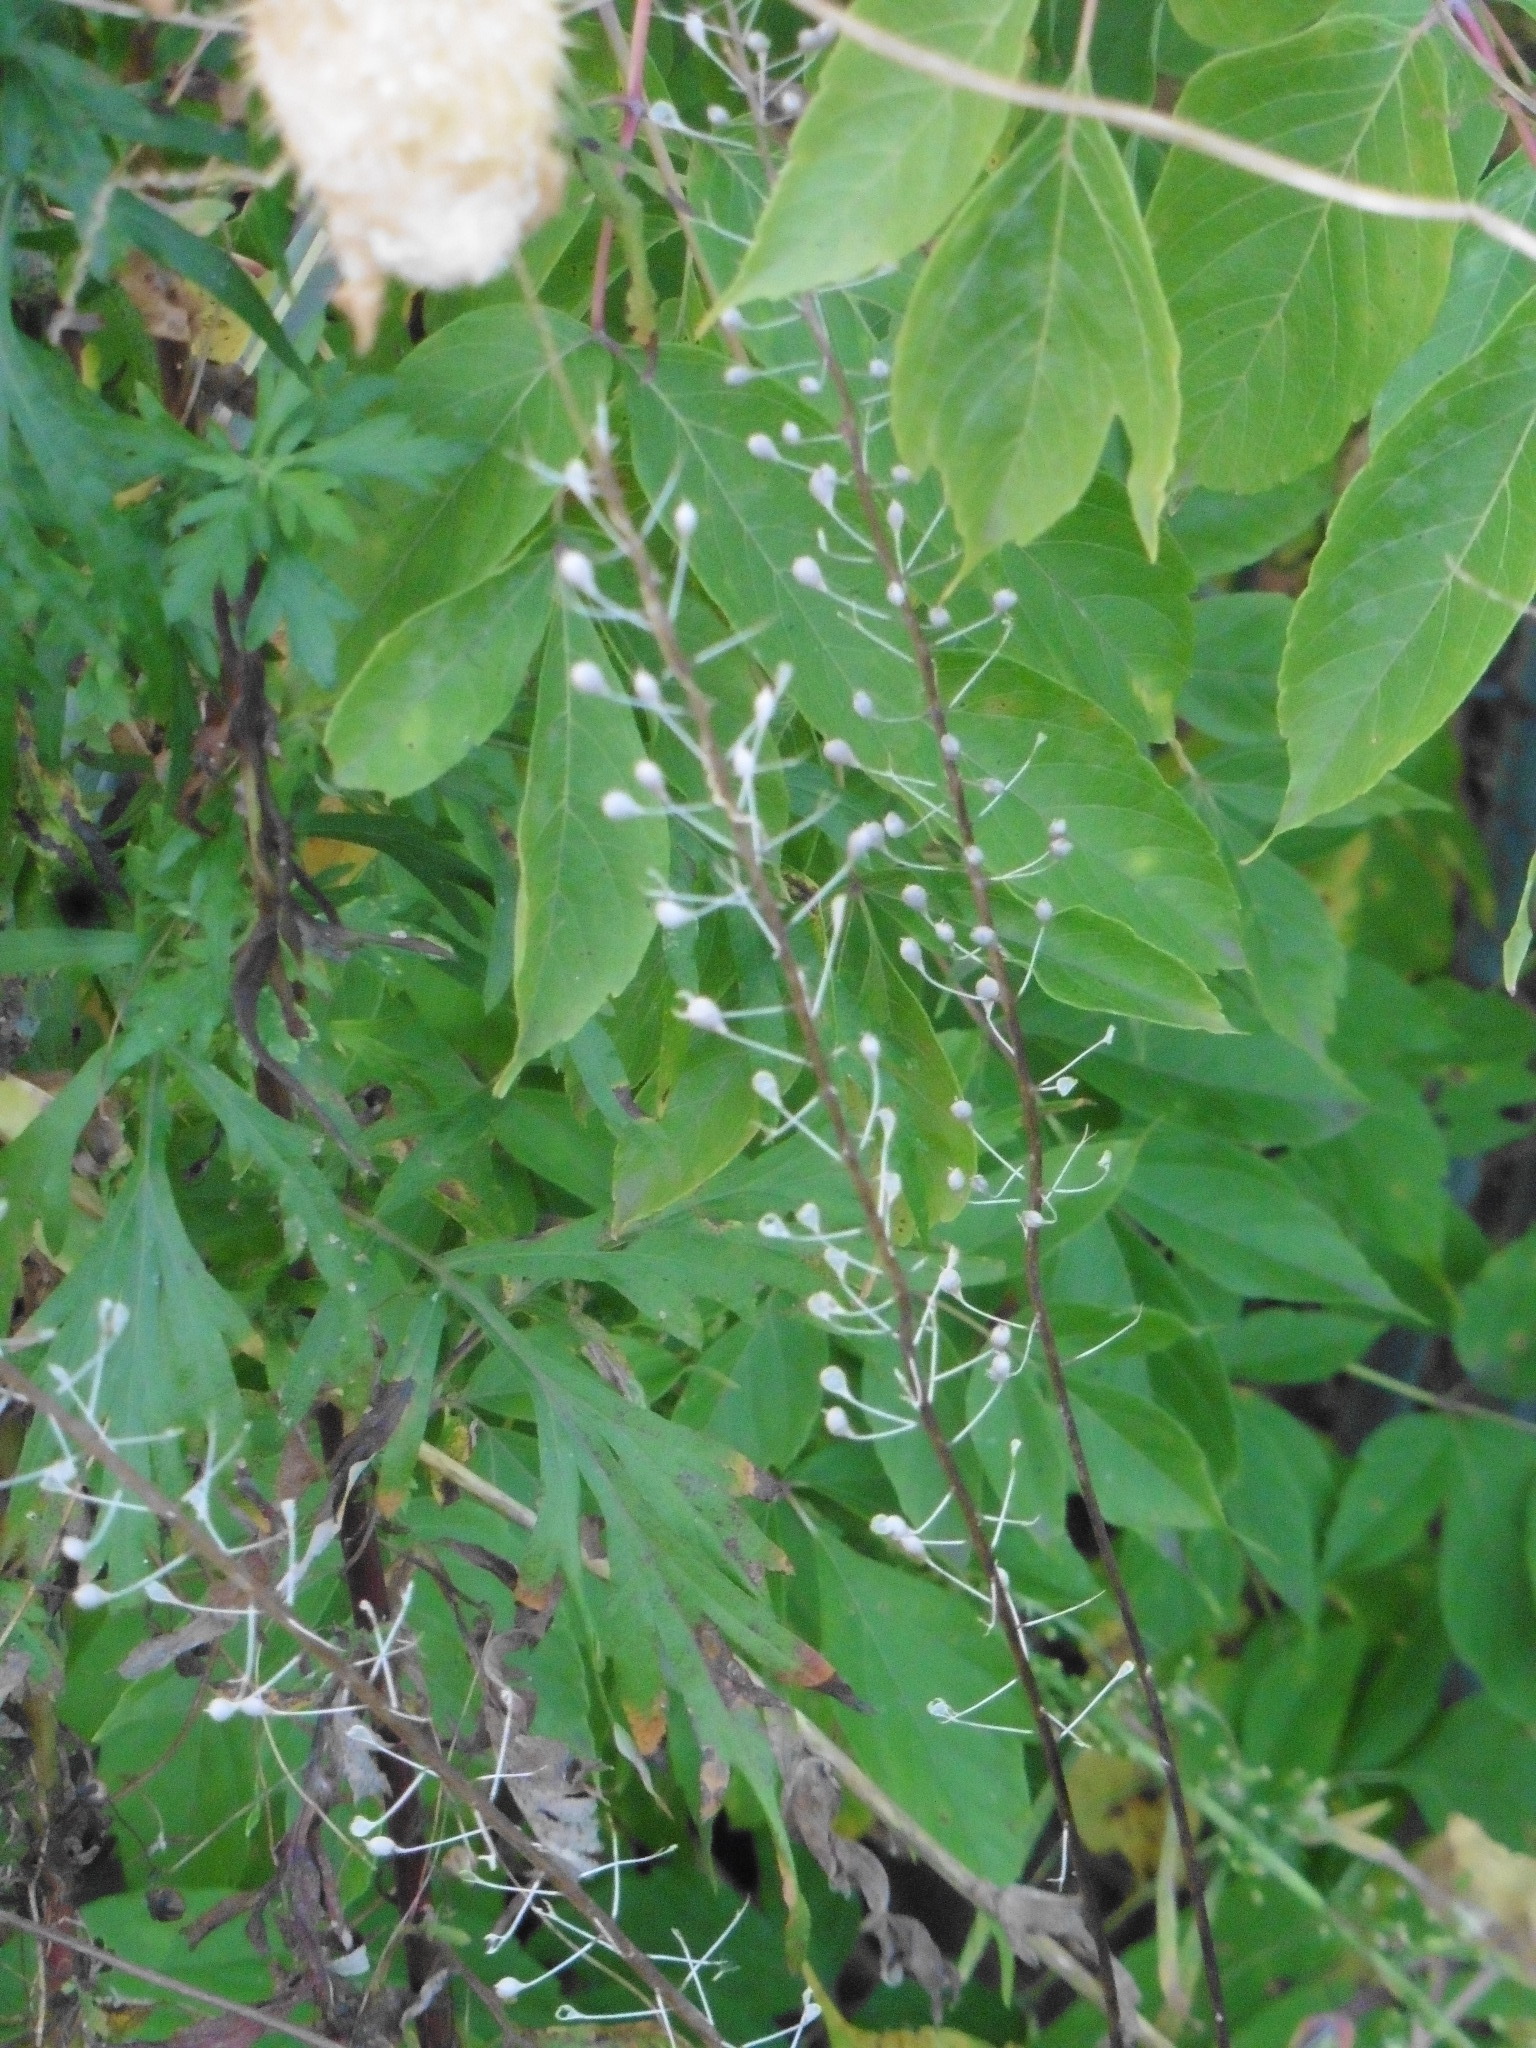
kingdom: Plantae
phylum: Tracheophyta
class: Magnoliopsida
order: Brassicales
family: Brassicaceae
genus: Camelina
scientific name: Camelina microcarpa
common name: Lesser gold-of-pleasure
